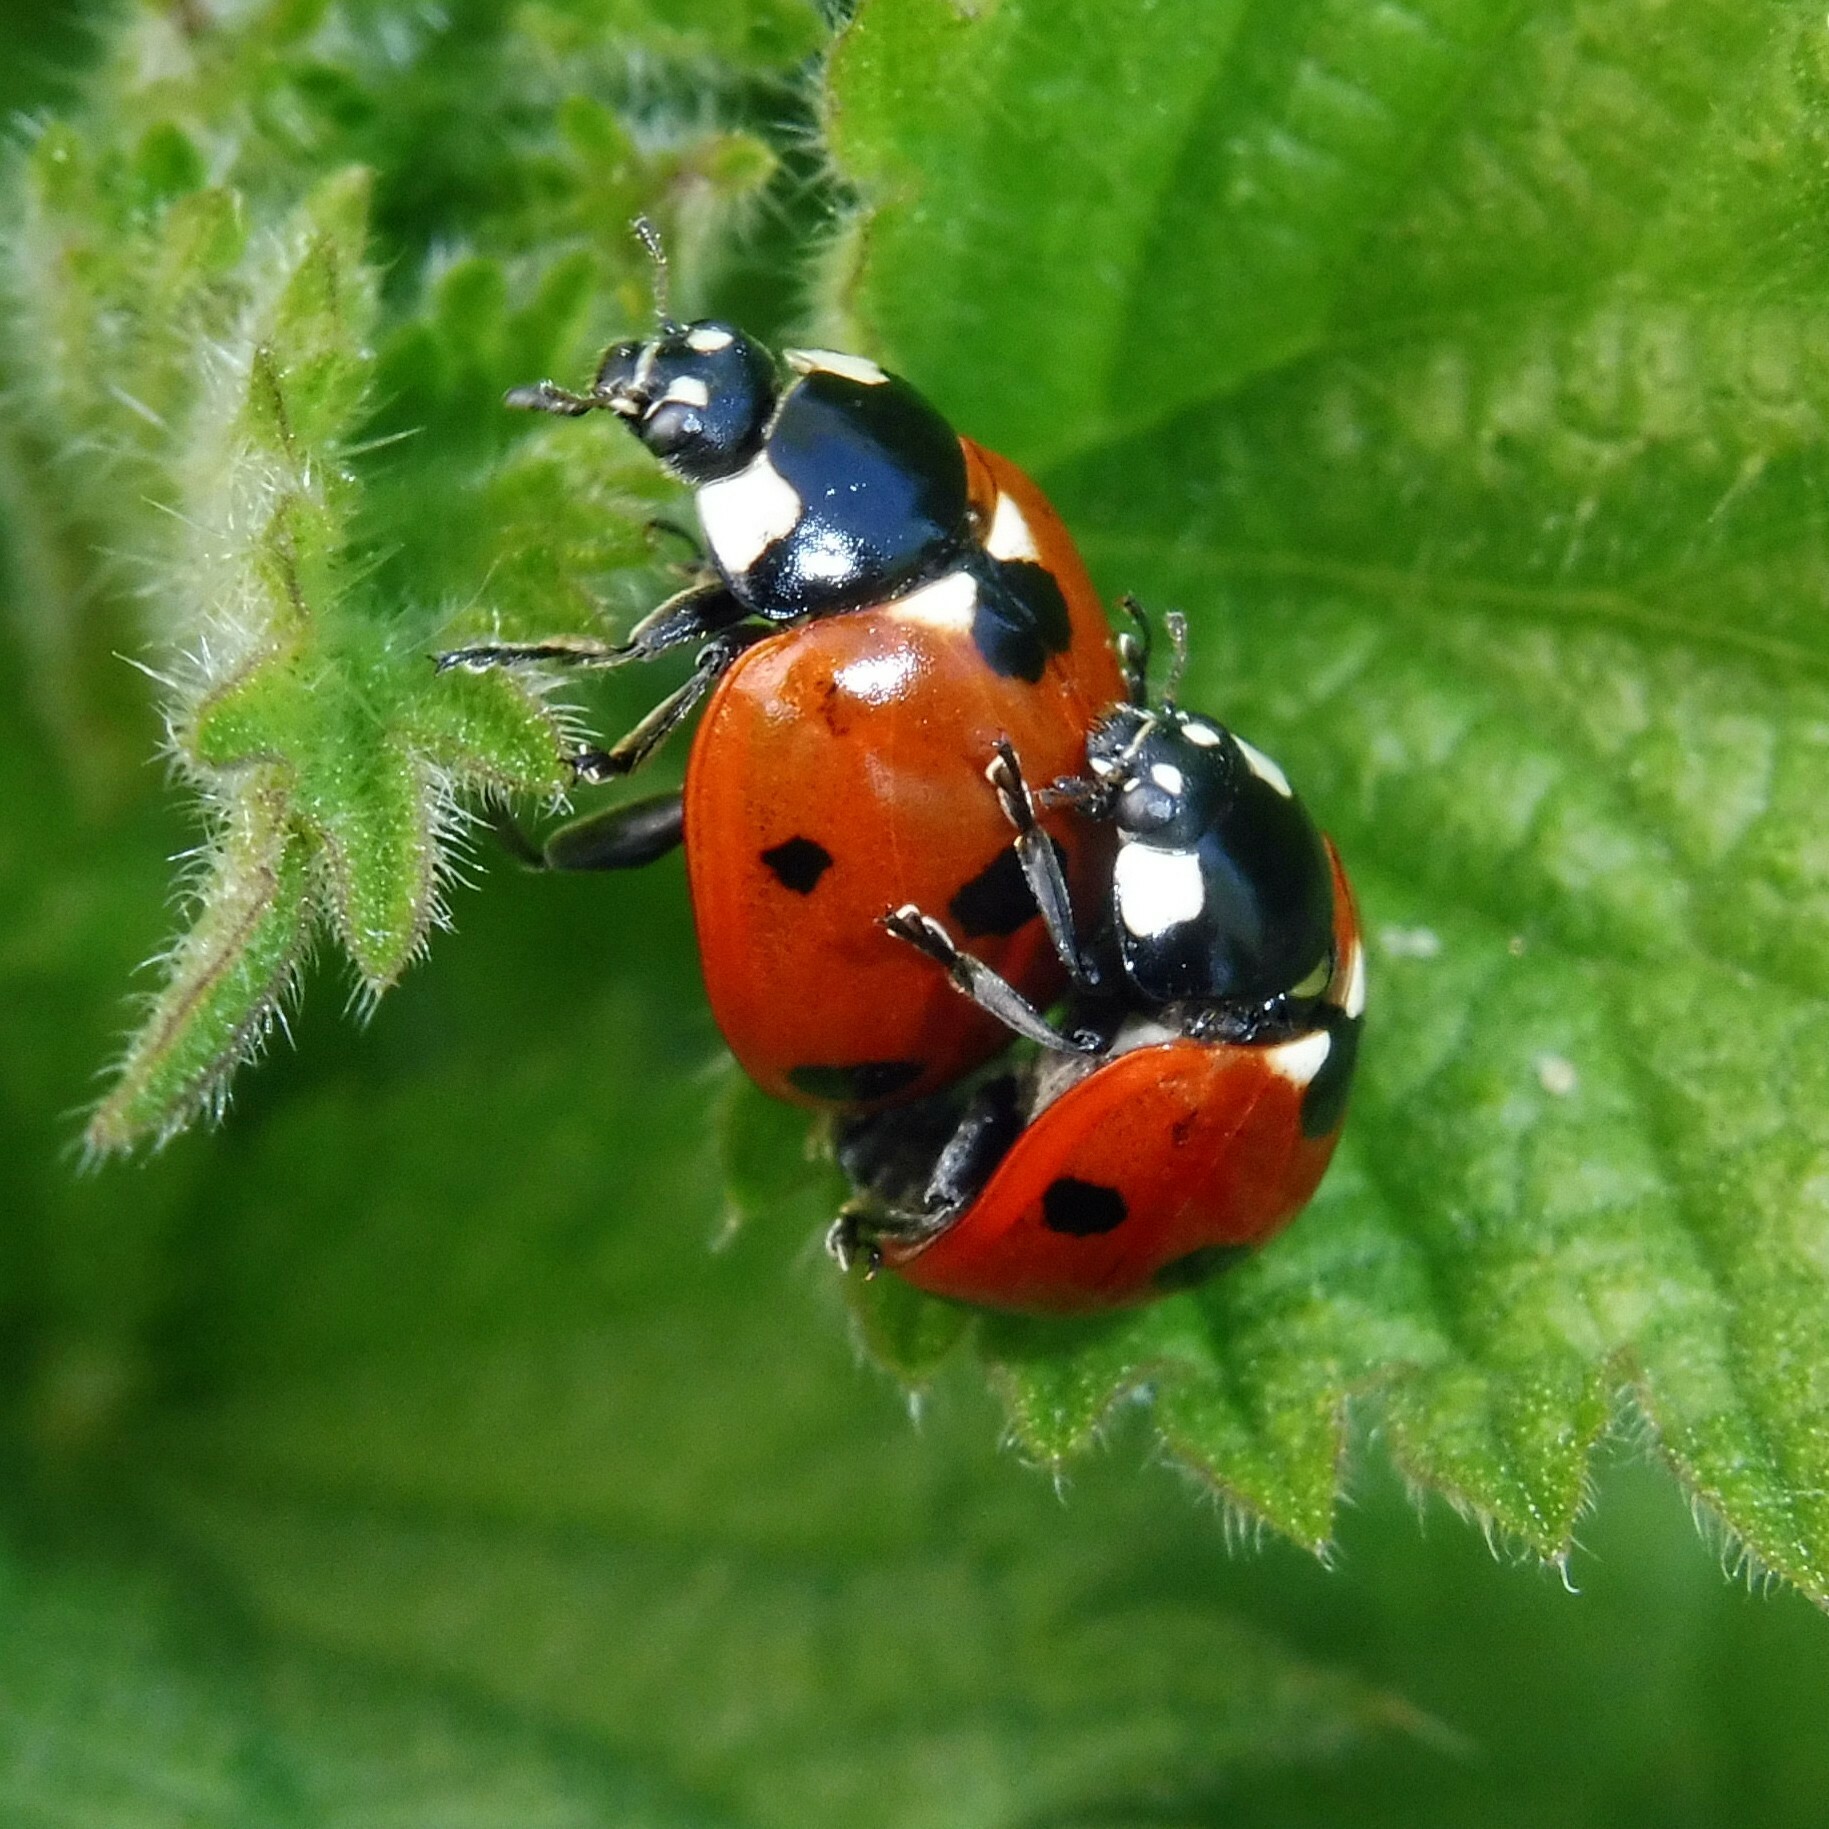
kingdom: Animalia
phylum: Arthropoda
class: Insecta
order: Coleoptera
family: Coccinellidae
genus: Coccinella
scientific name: Coccinella septempunctata
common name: Sevenspotted lady beetle
